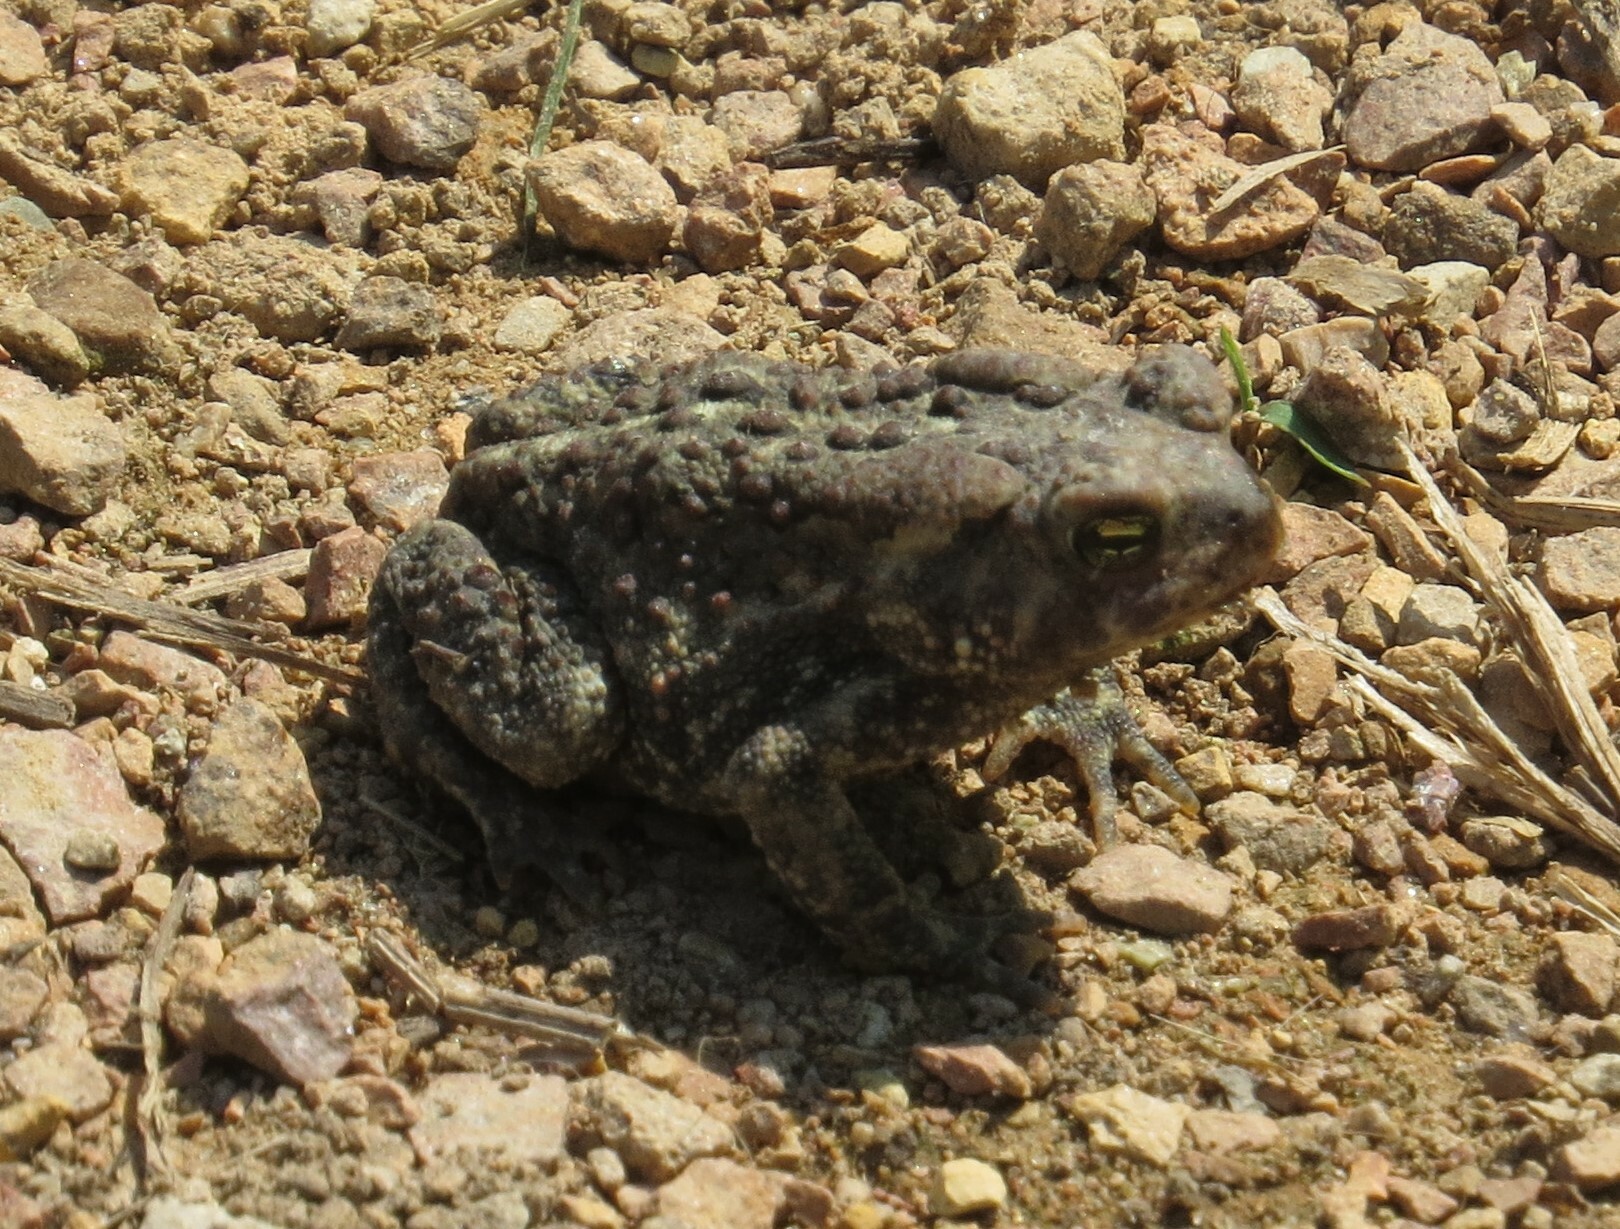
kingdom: Animalia
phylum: Chordata
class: Amphibia
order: Anura
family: Bufonidae
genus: Anaxyrus
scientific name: Anaxyrus americanus
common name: American toad
